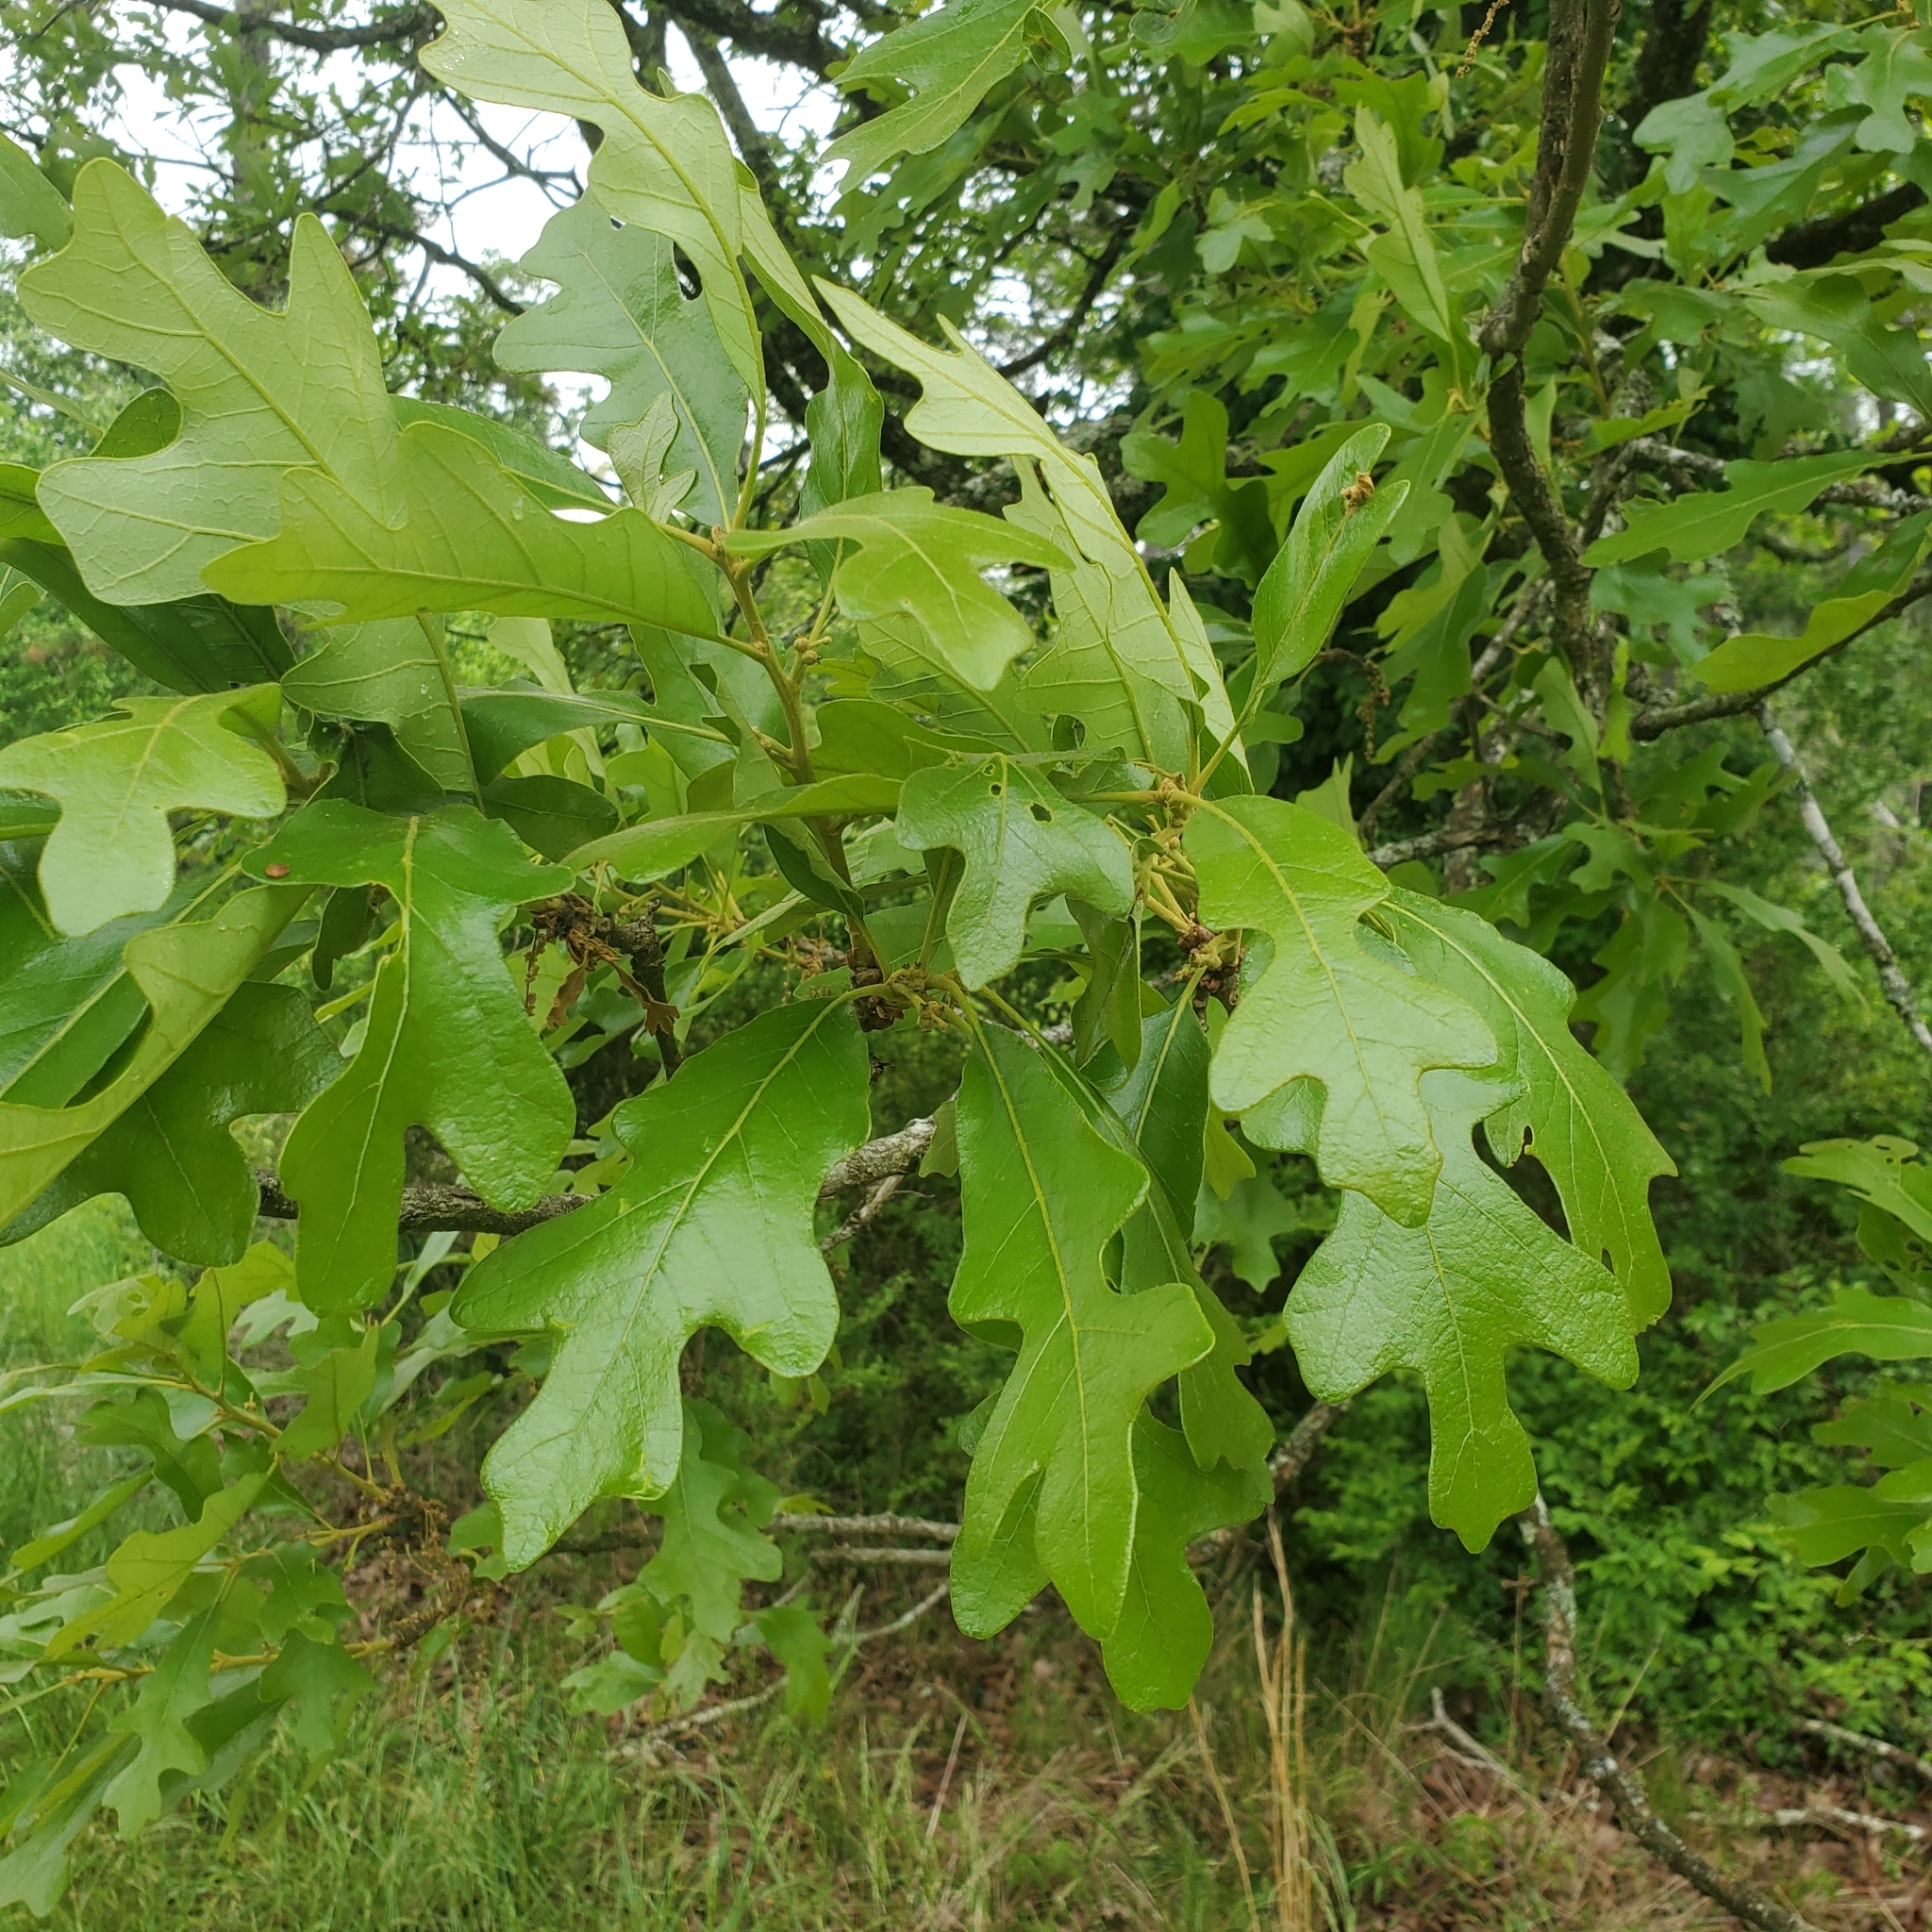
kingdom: Plantae
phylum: Tracheophyta
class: Magnoliopsida
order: Fagales
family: Fagaceae
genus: Quercus
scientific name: Quercus stellata
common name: Post oak
